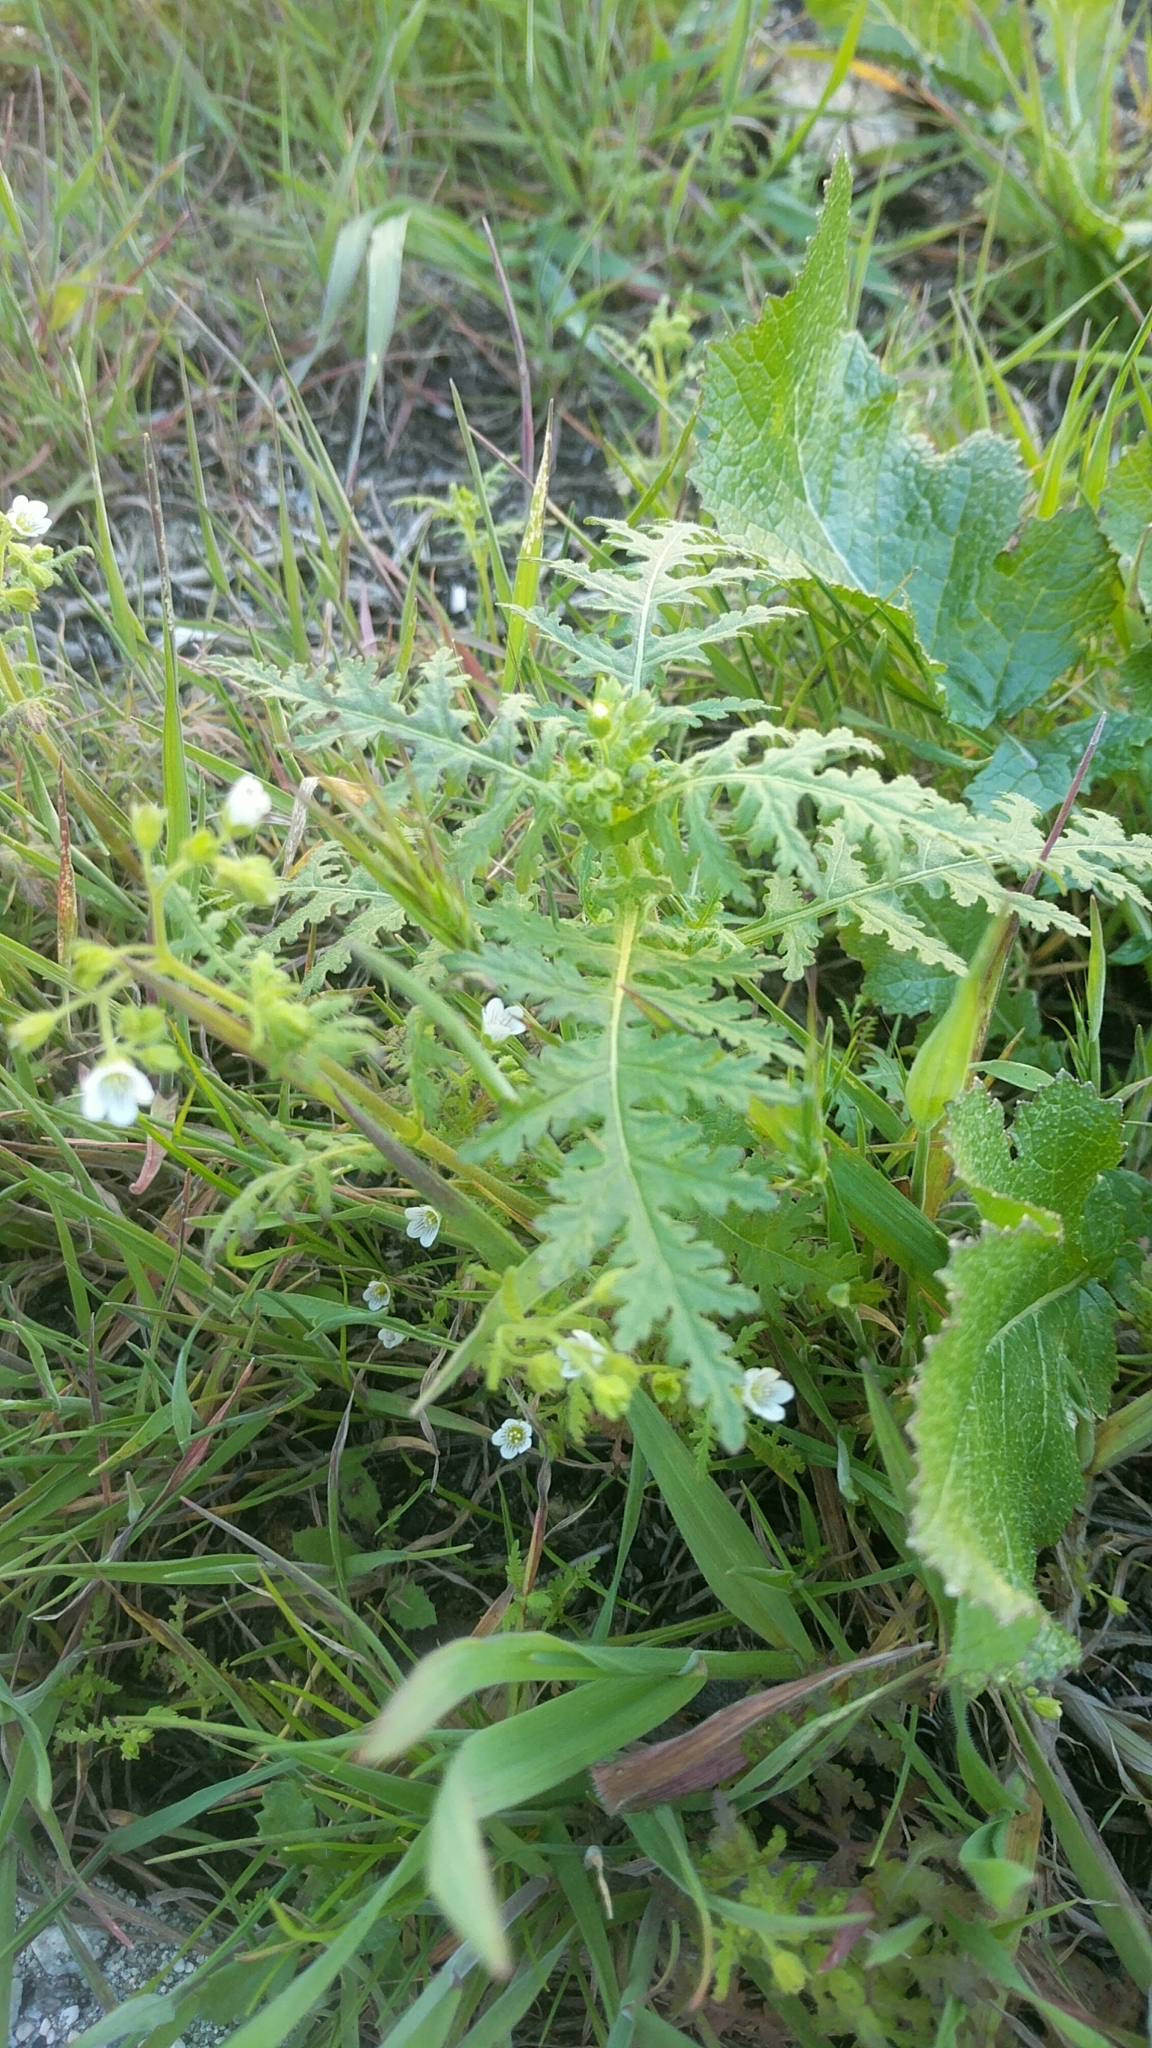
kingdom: Plantae
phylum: Tracheophyta
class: Magnoliopsida
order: Boraginales
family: Hydrophyllaceae
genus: Eucrypta
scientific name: Eucrypta chrysanthemifolia
